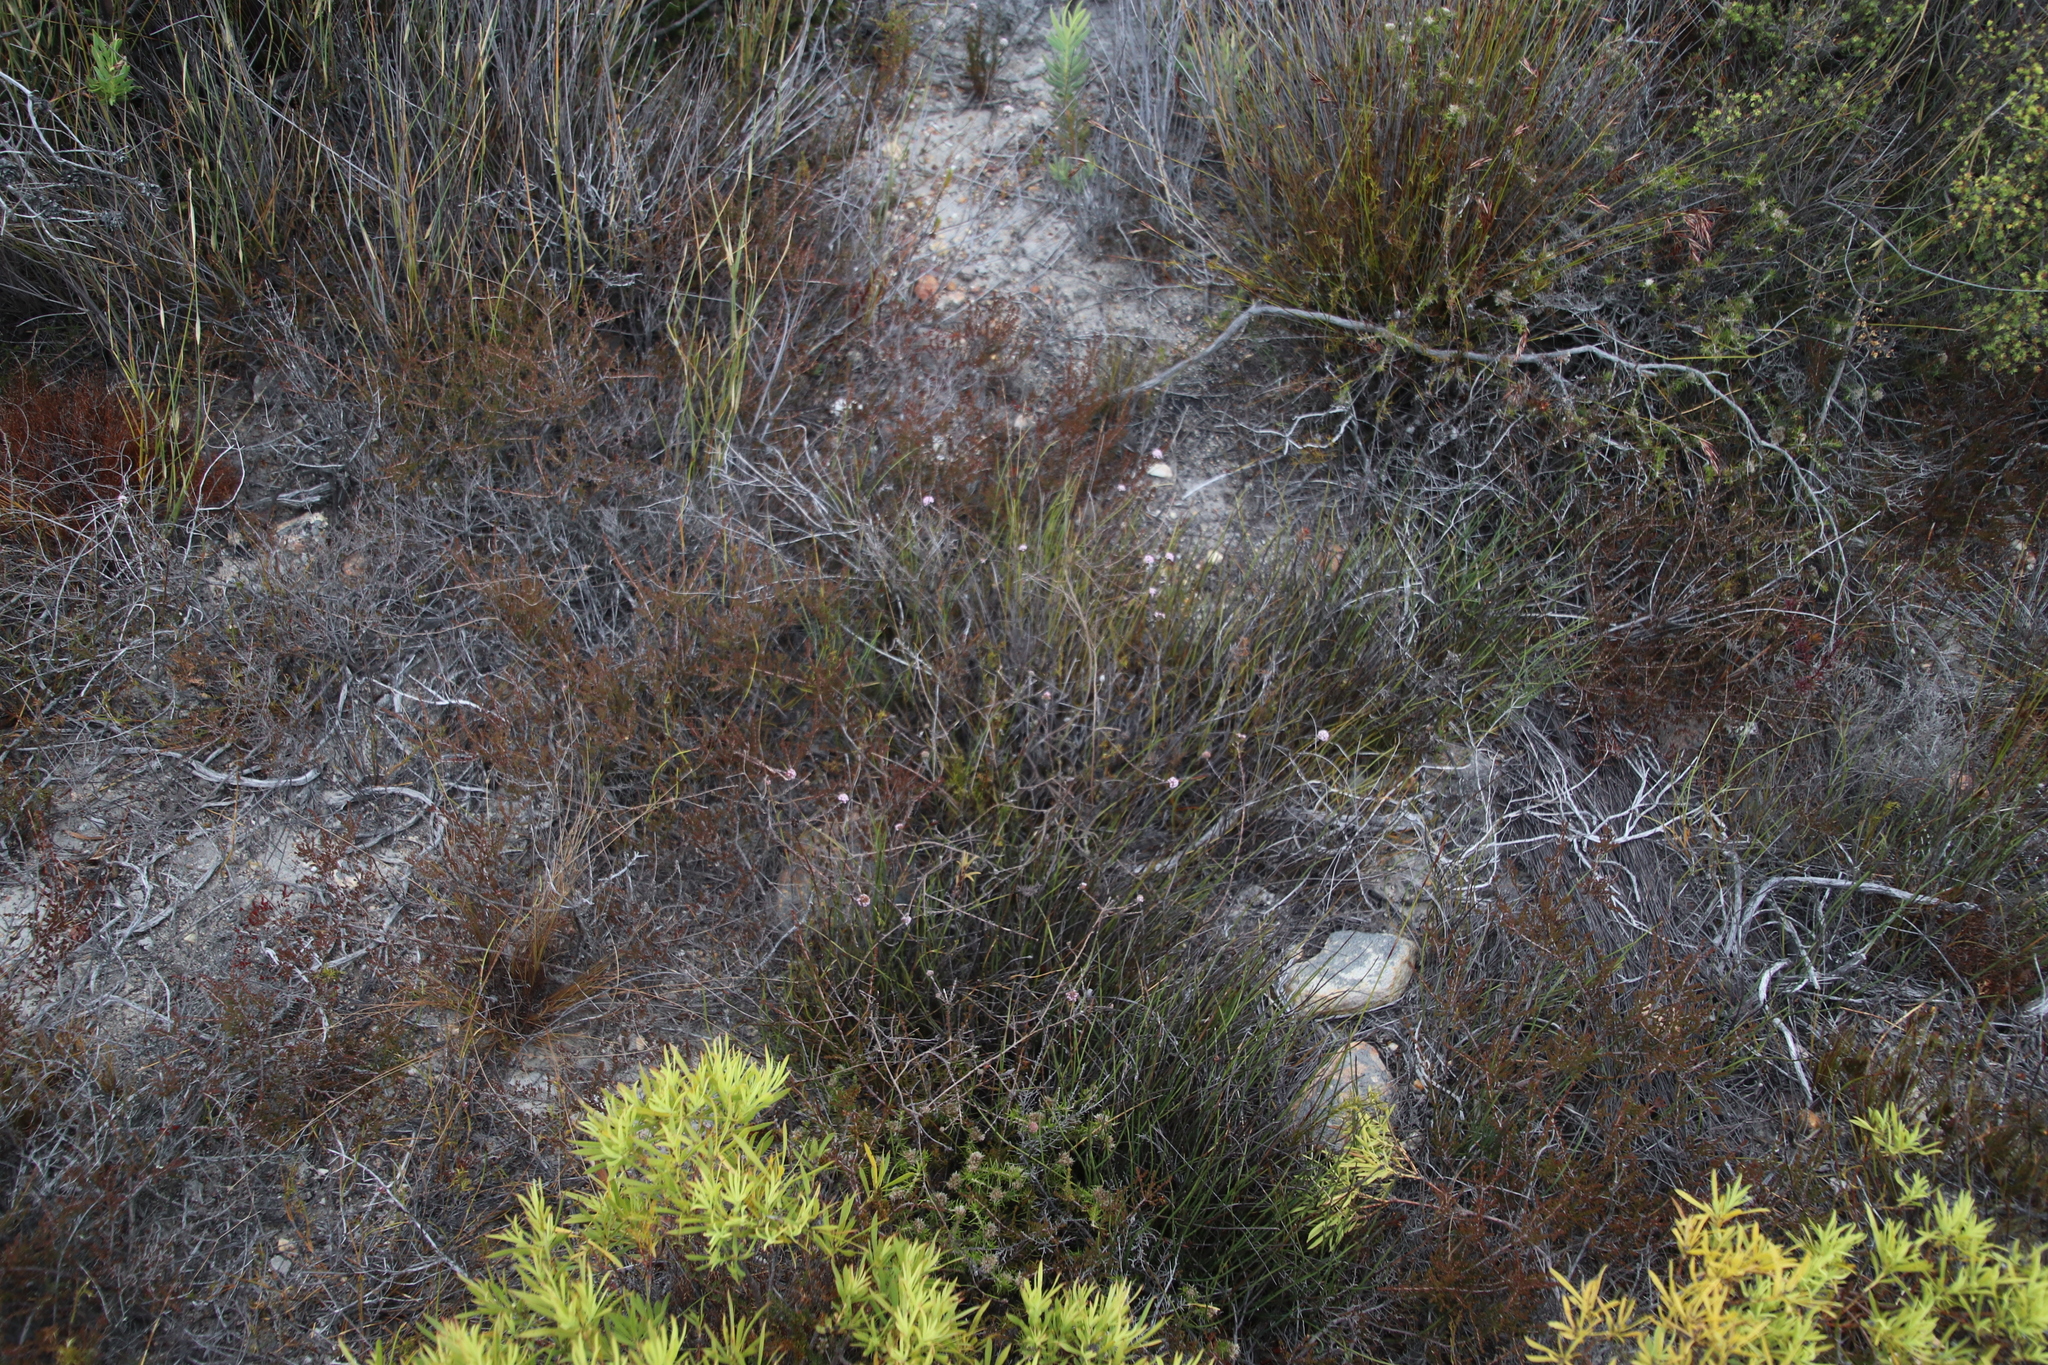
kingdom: Plantae
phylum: Tracheophyta
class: Magnoliopsida
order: Saxifragales
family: Crassulaceae
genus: Crassula
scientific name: Crassula subulata
